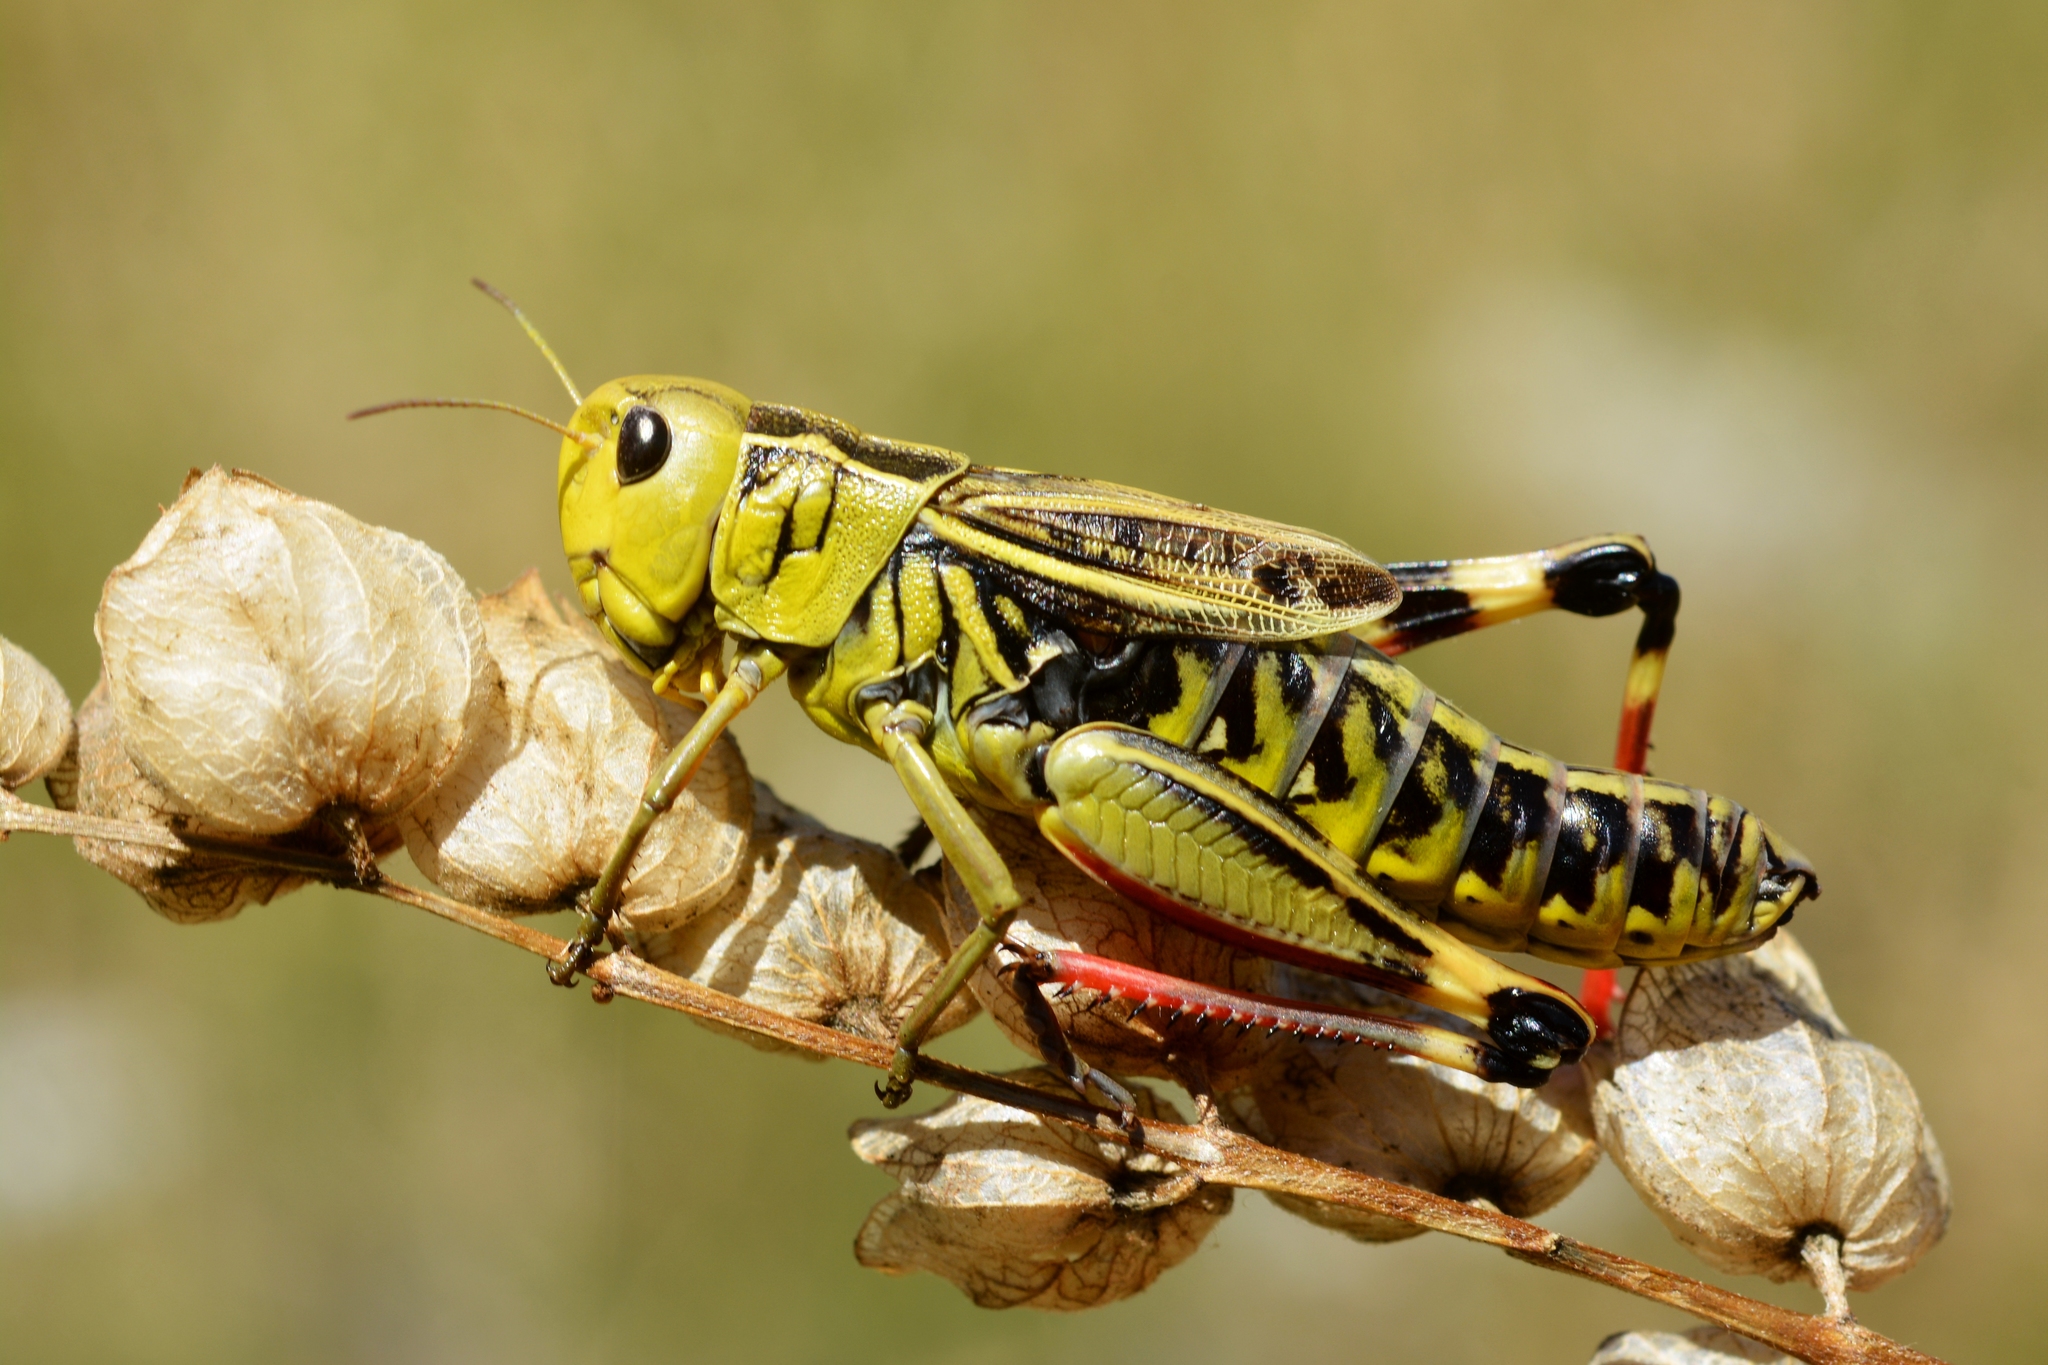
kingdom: Animalia
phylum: Arthropoda
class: Insecta
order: Orthoptera
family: Acrididae
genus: Arcyptera
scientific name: Arcyptera fusca
